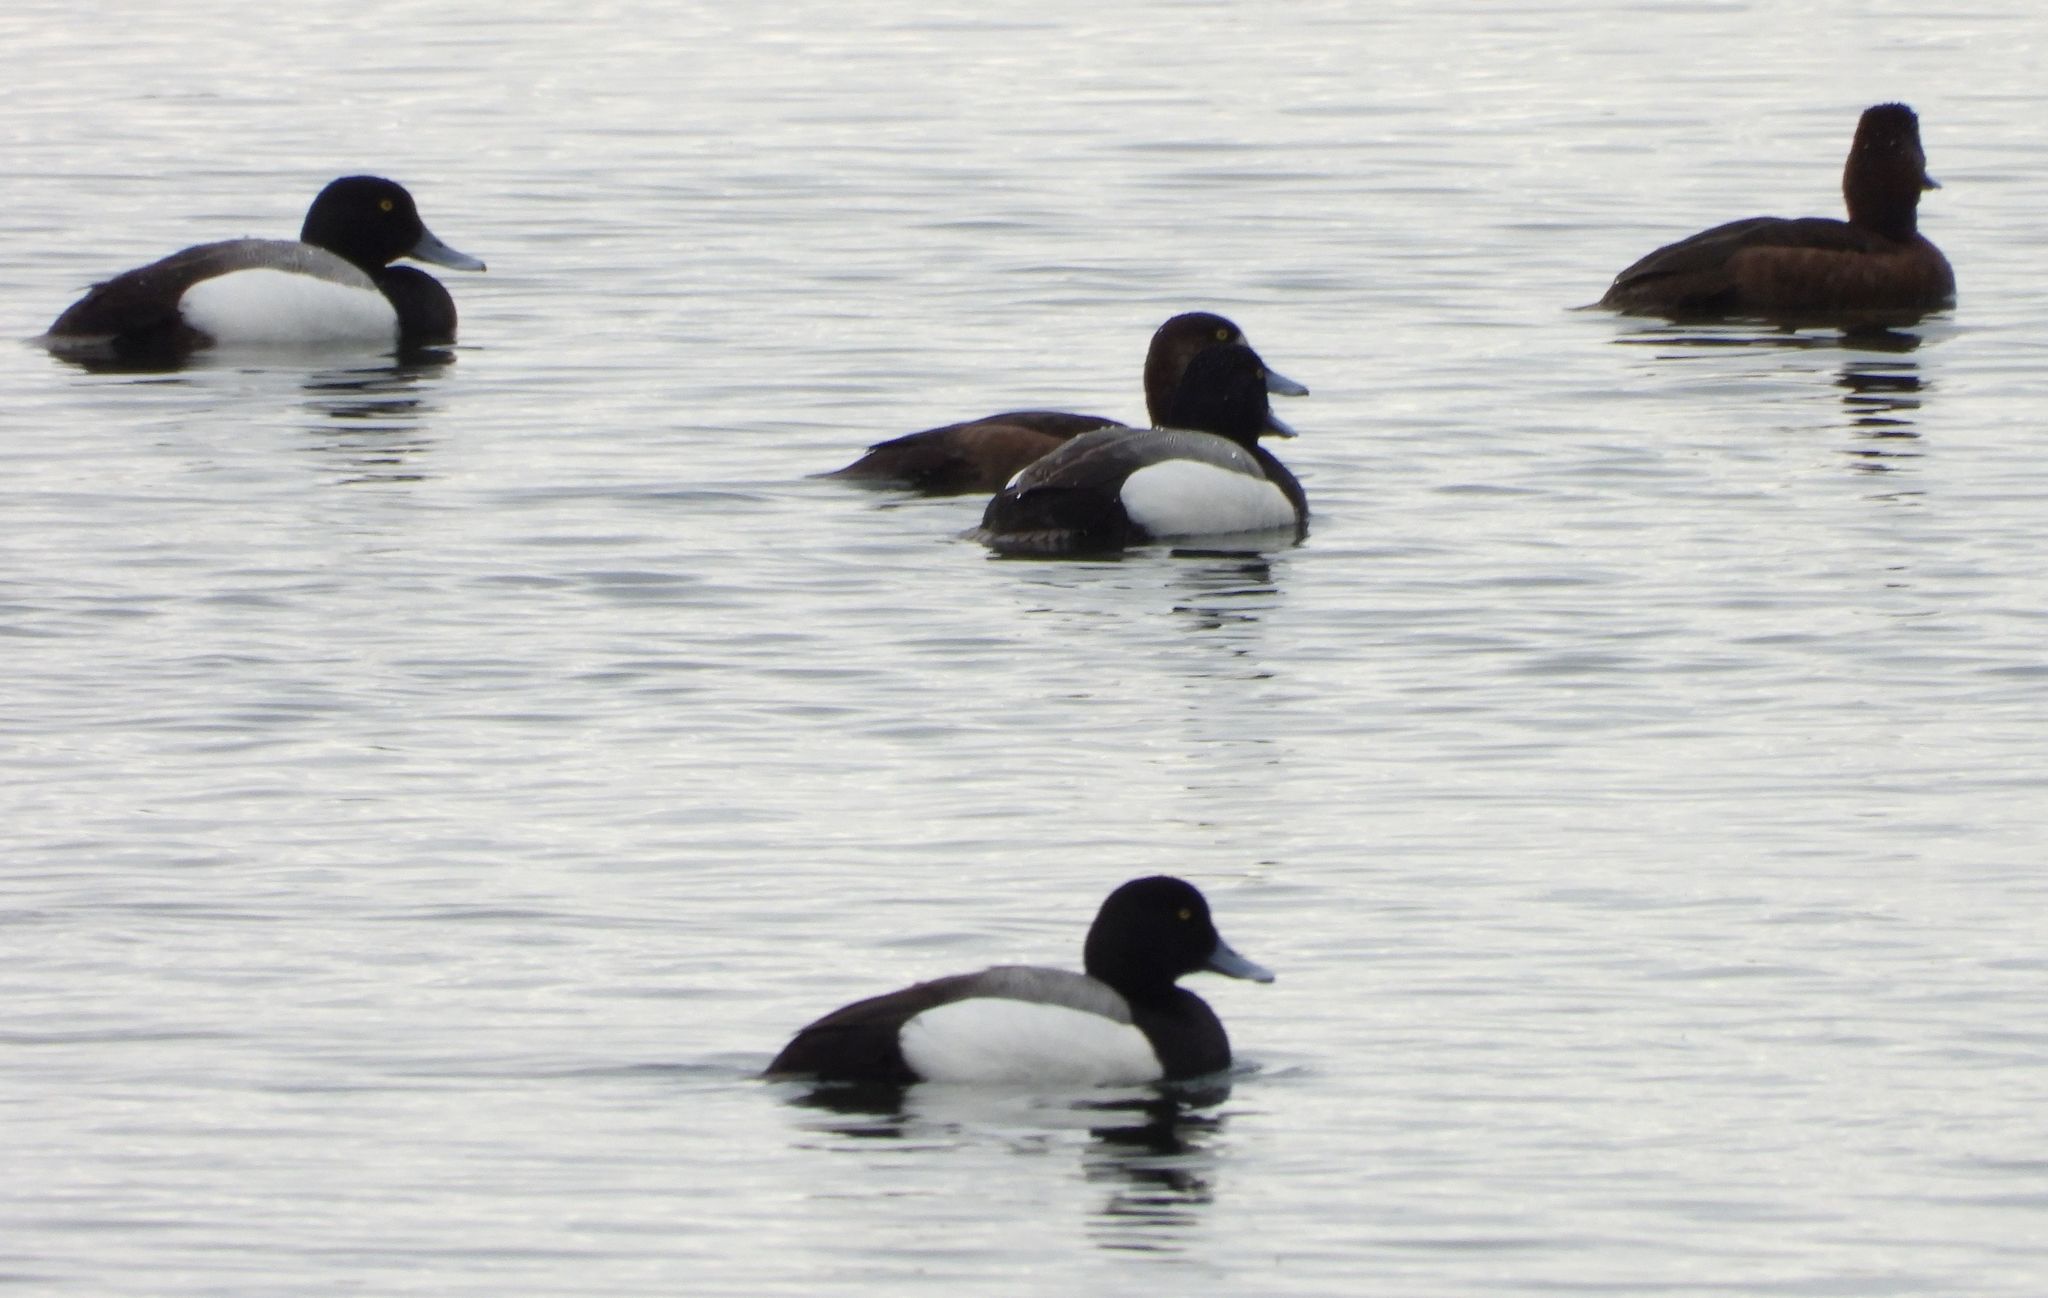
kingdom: Animalia
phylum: Chordata
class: Aves
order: Anseriformes
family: Anatidae
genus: Aythya
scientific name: Aythya marila
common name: Greater scaup
